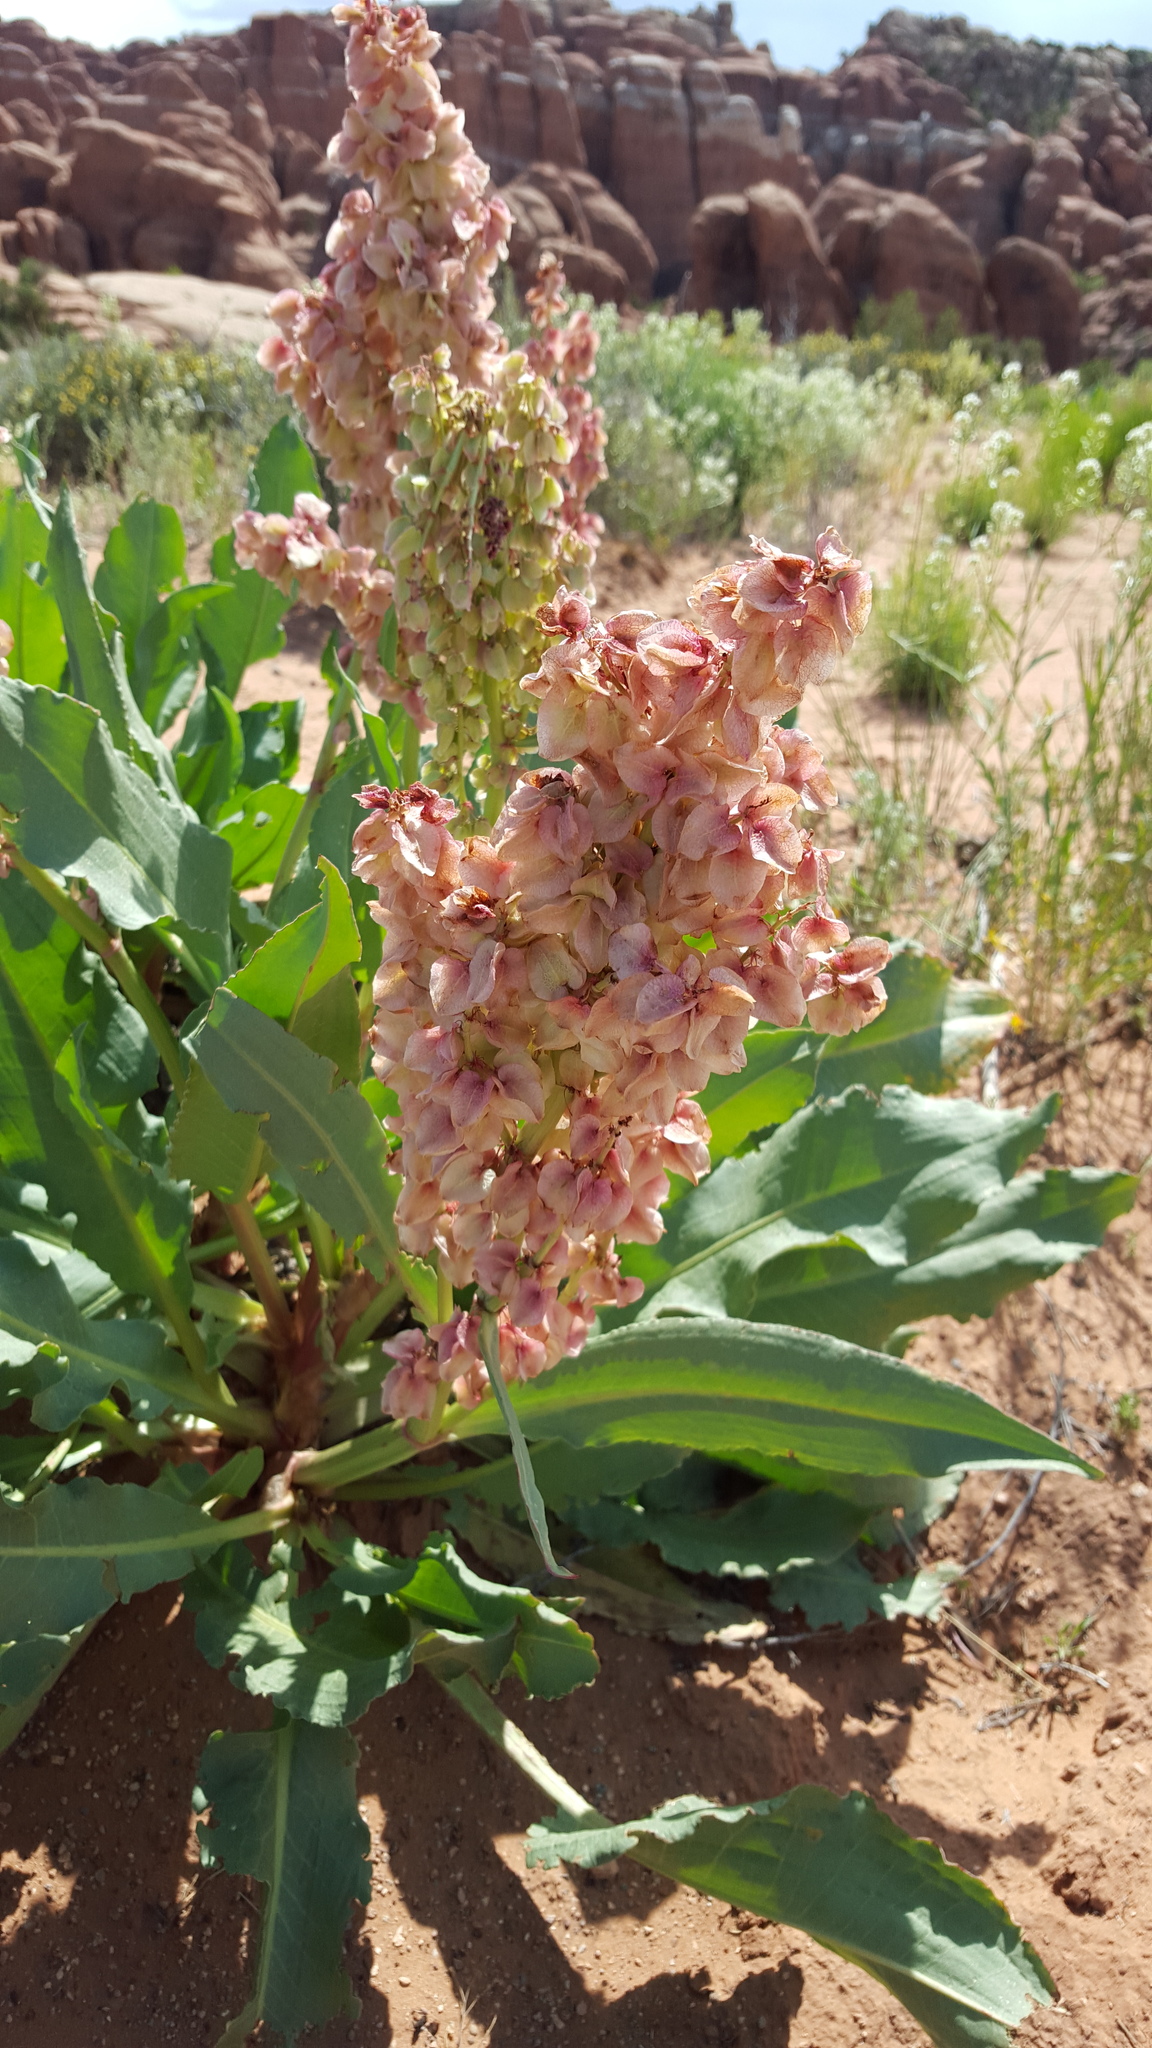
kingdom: Plantae
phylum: Tracheophyta
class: Magnoliopsida
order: Caryophyllales
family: Polygonaceae
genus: Rumex
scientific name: Rumex hymenosepalus
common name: Ganagra
